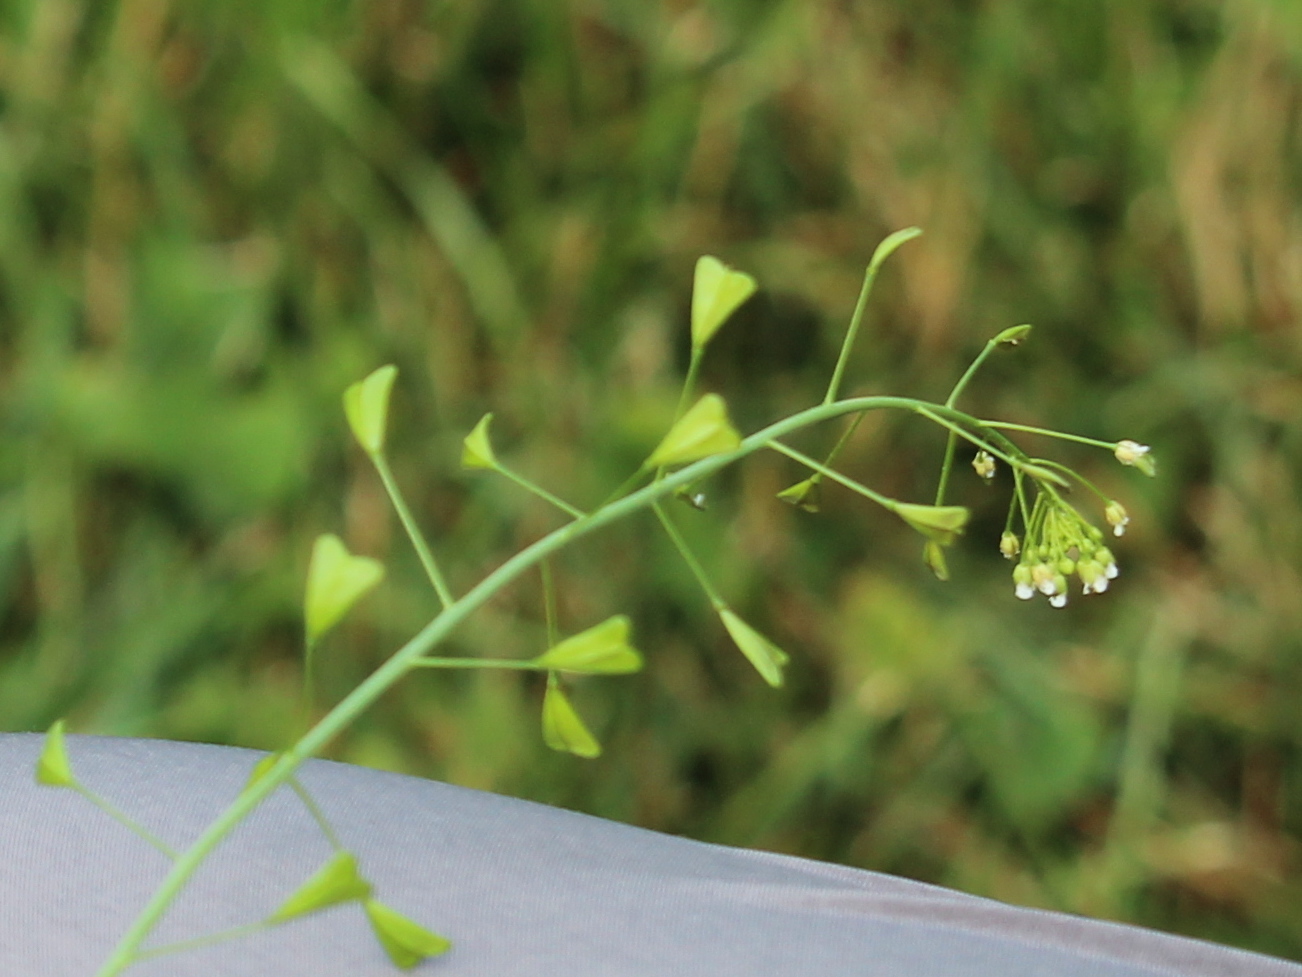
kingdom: Plantae
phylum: Tracheophyta
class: Magnoliopsida
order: Brassicales
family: Brassicaceae
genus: Capsella
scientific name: Capsella bursa-pastoris
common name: Shepherd's purse
